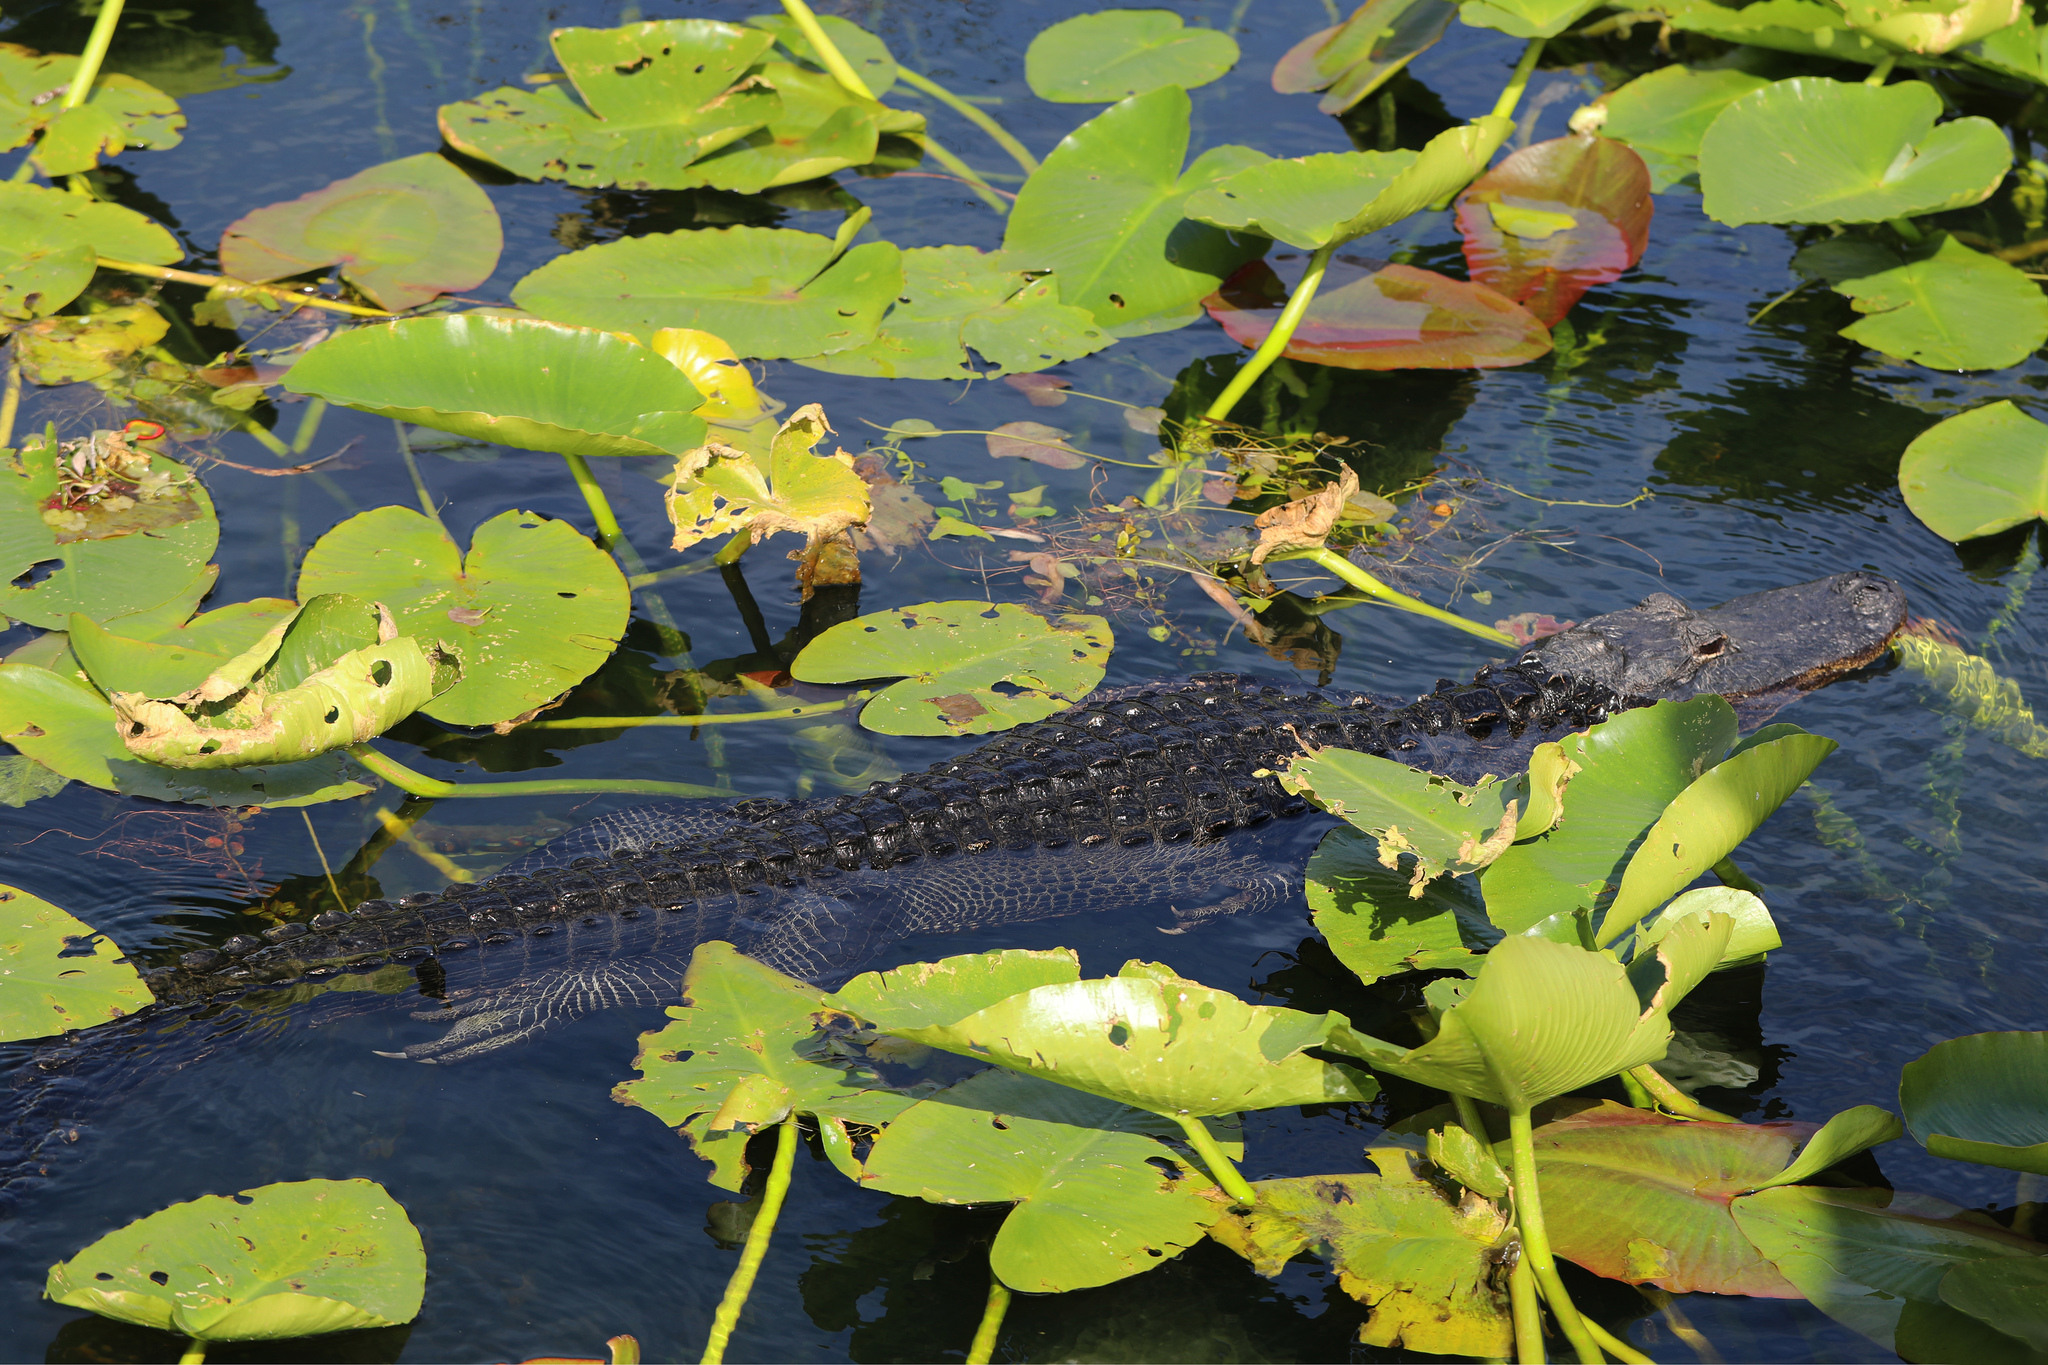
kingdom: Animalia
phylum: Chordata
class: Crocodylia
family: Alligatoridae
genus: Alligator
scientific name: Alligator mississippiensis
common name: American alligator
